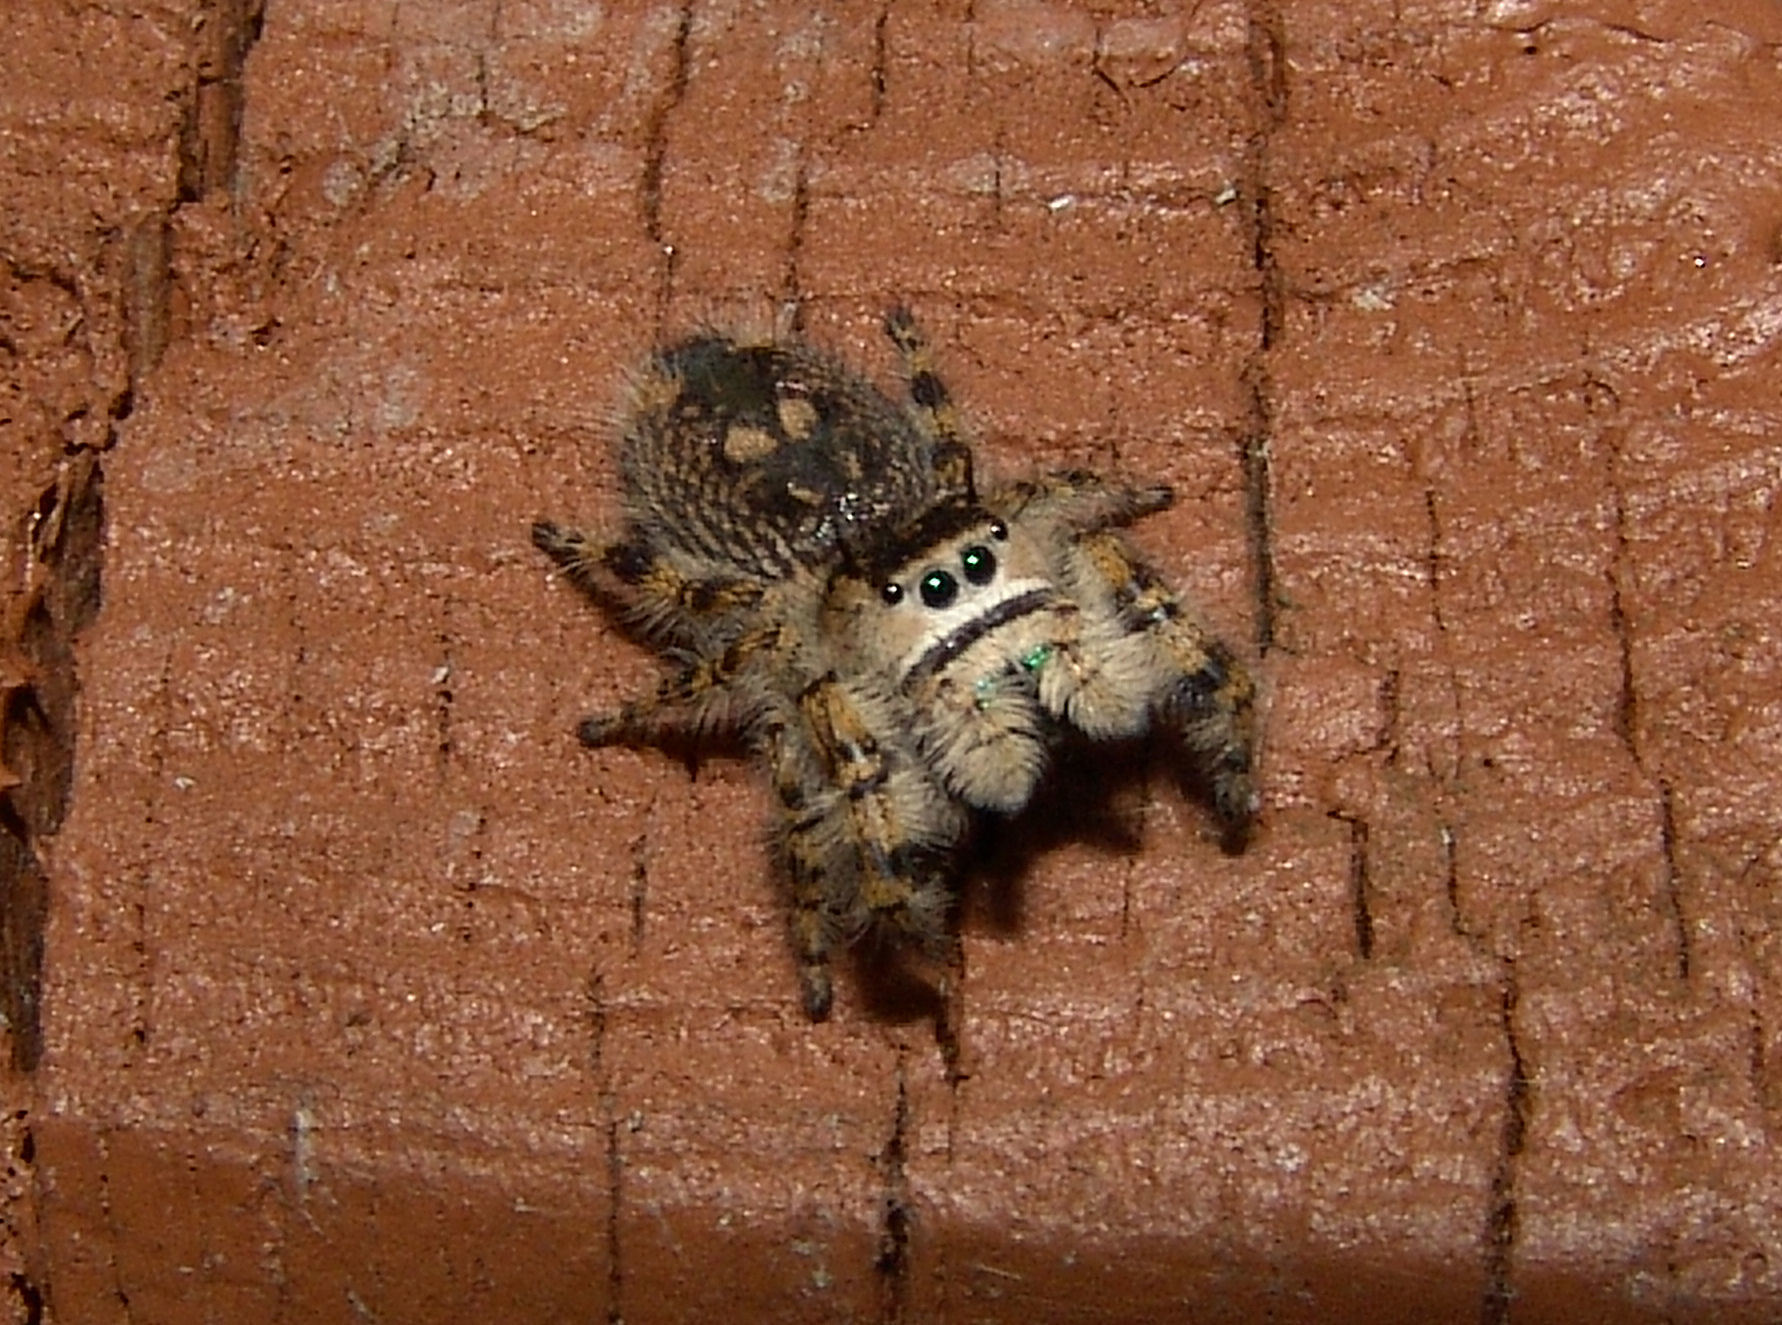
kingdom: Animalia
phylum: Arthropoda
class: Arachnida
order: Araneae
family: Salticidae
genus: Phidippus
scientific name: Phidippus otiosus
